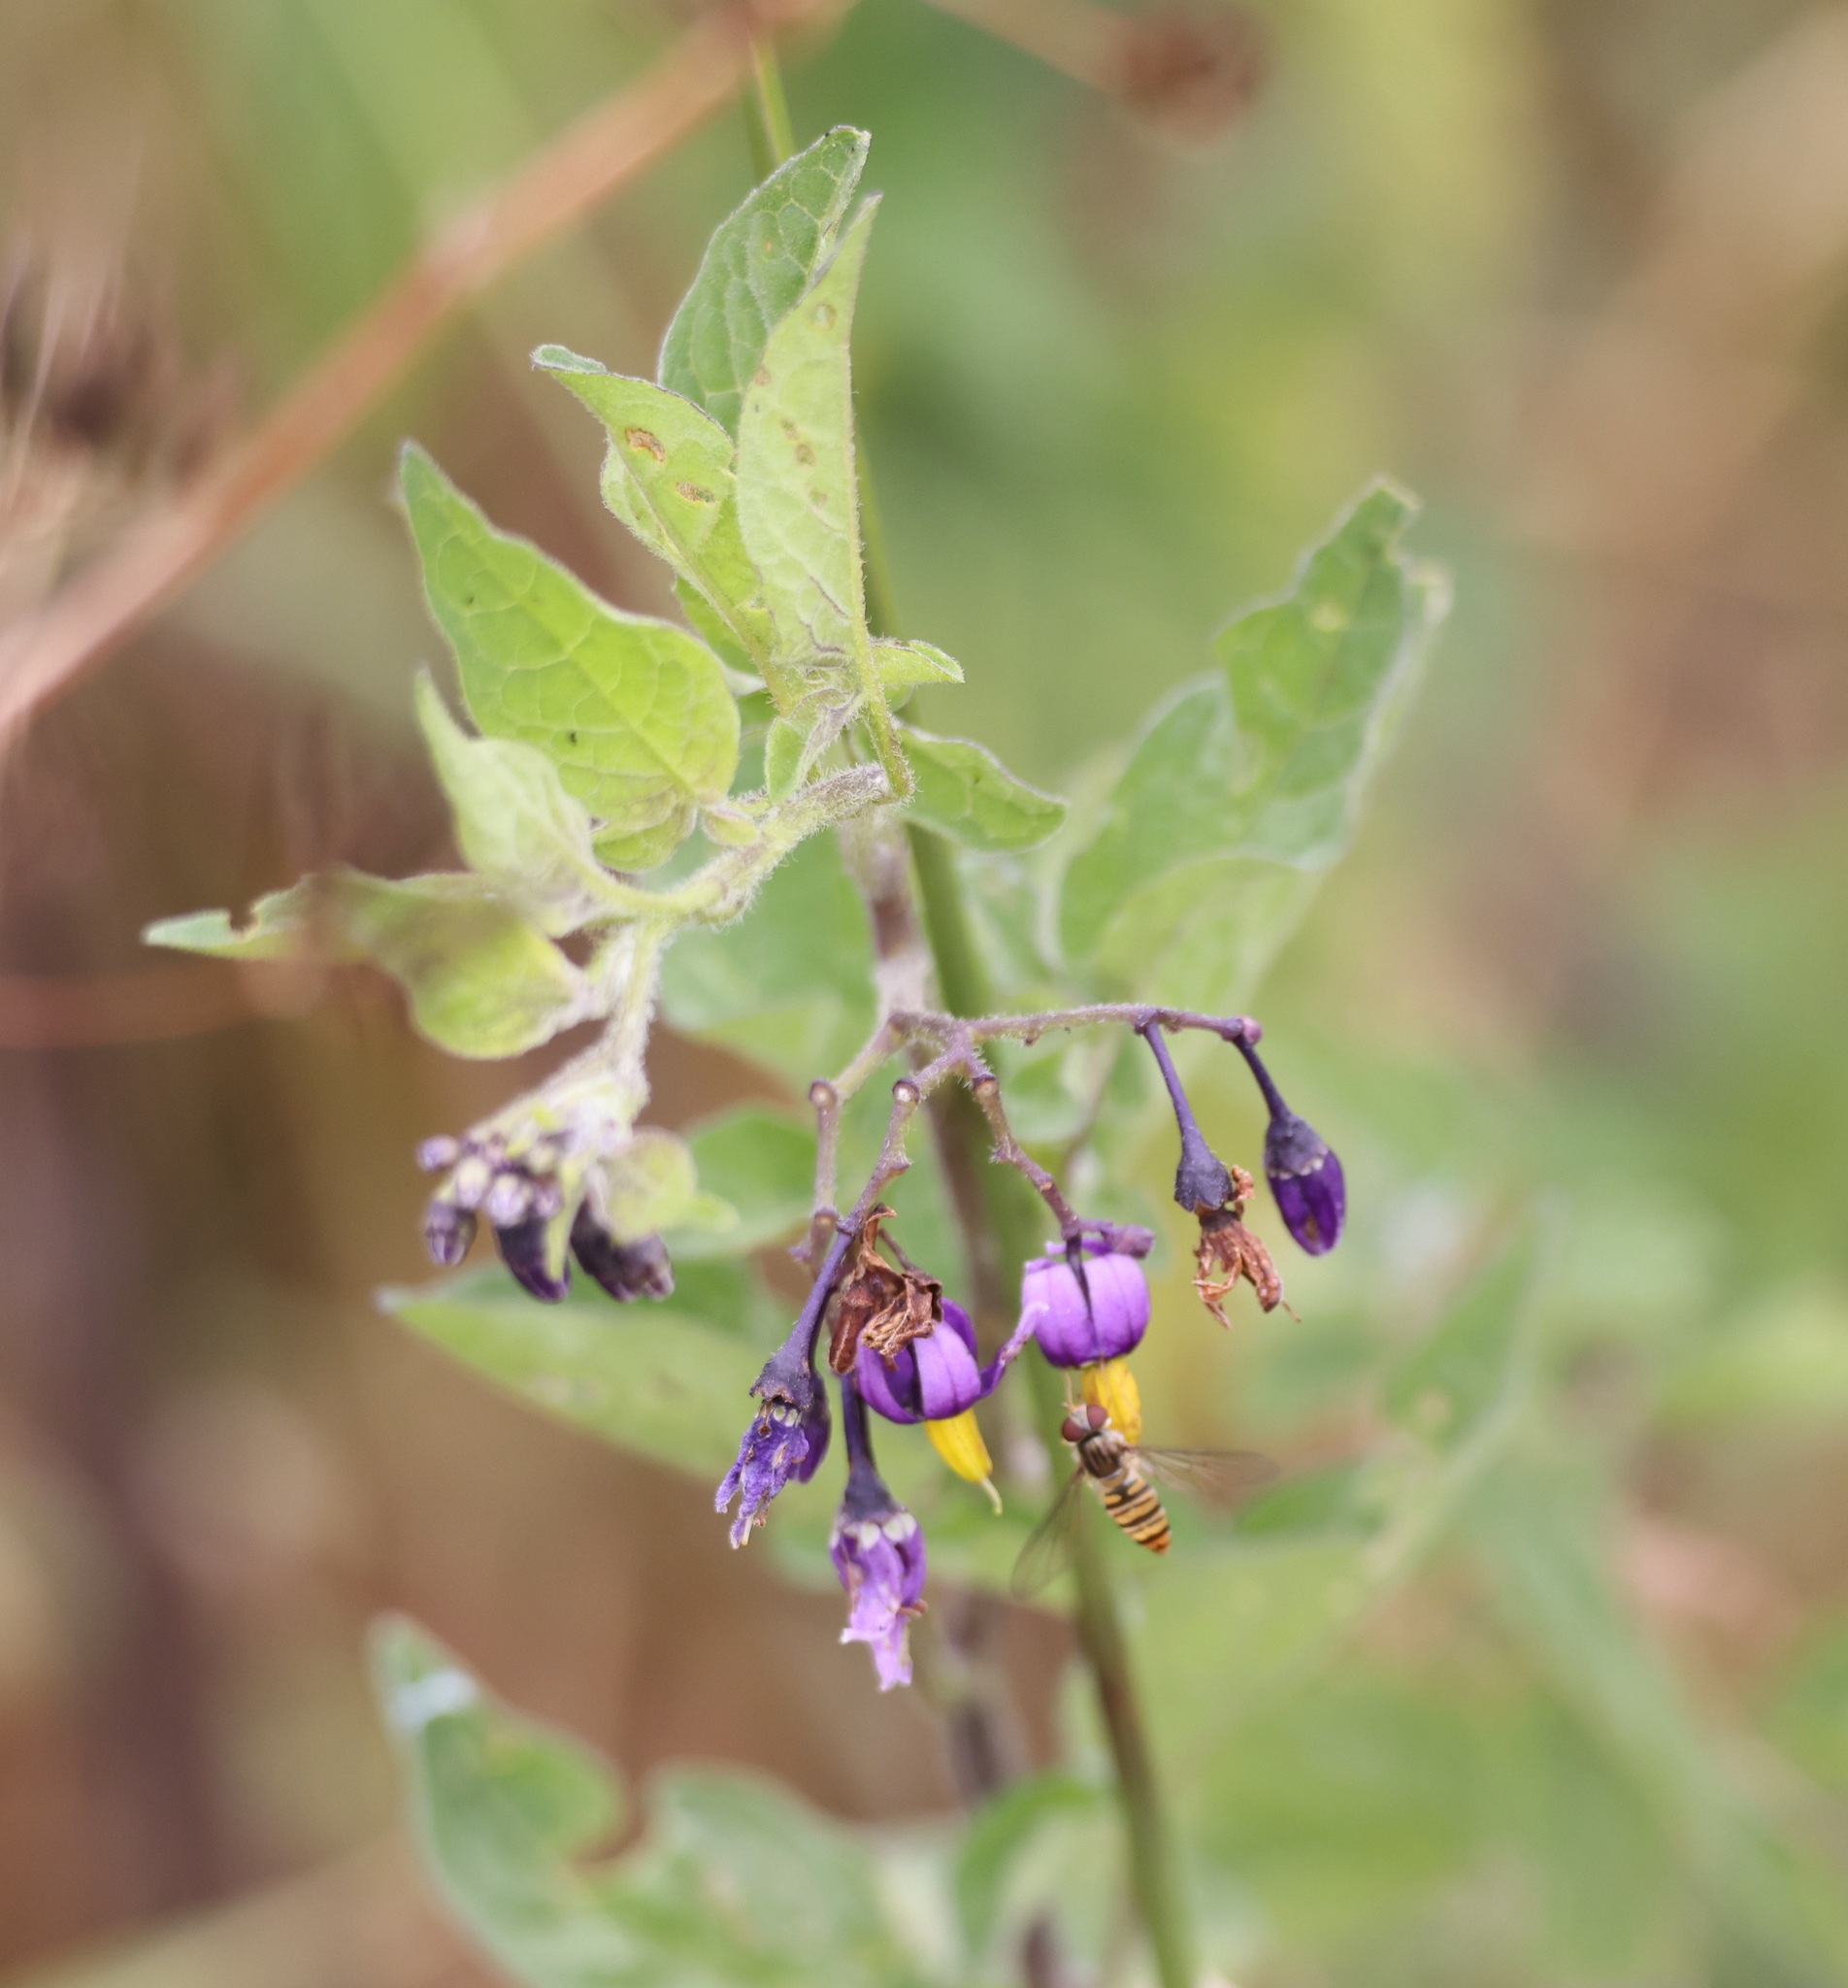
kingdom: Plantae
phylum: Tracheophyta
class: Magnoliopsida
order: Solanales
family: Solanaceae
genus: Solanum
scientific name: Solanum dulcamara
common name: Climbing nightshade
